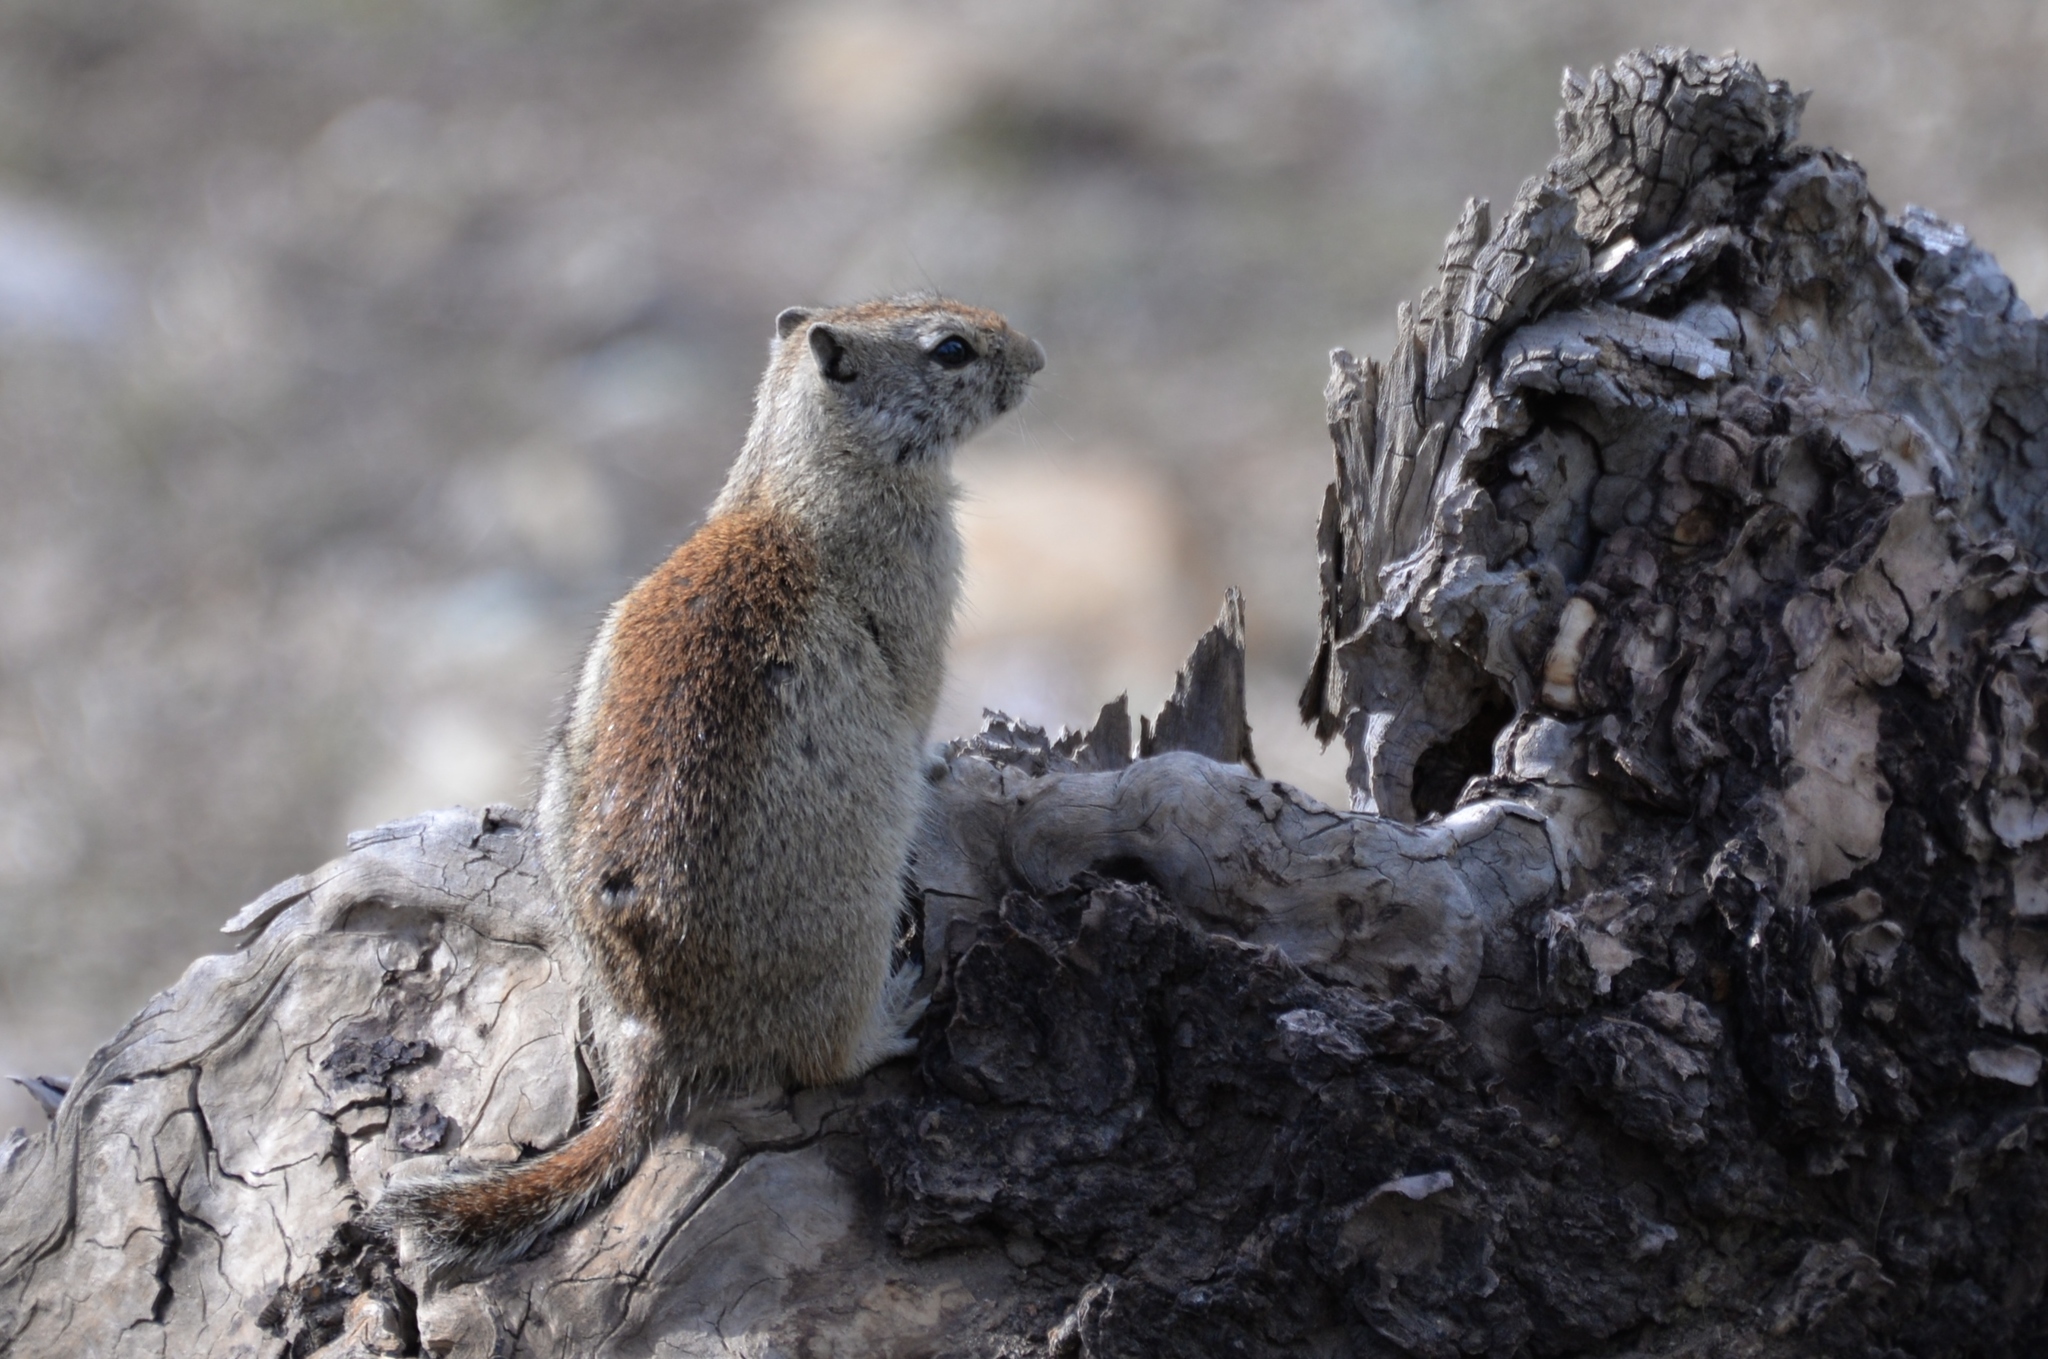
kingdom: Animalia
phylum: Chordata
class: Mammalia
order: Rodentia
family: Sciuridae
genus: Urocitellus
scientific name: Urocitellus beldingi
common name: Belding's ground squirrel
